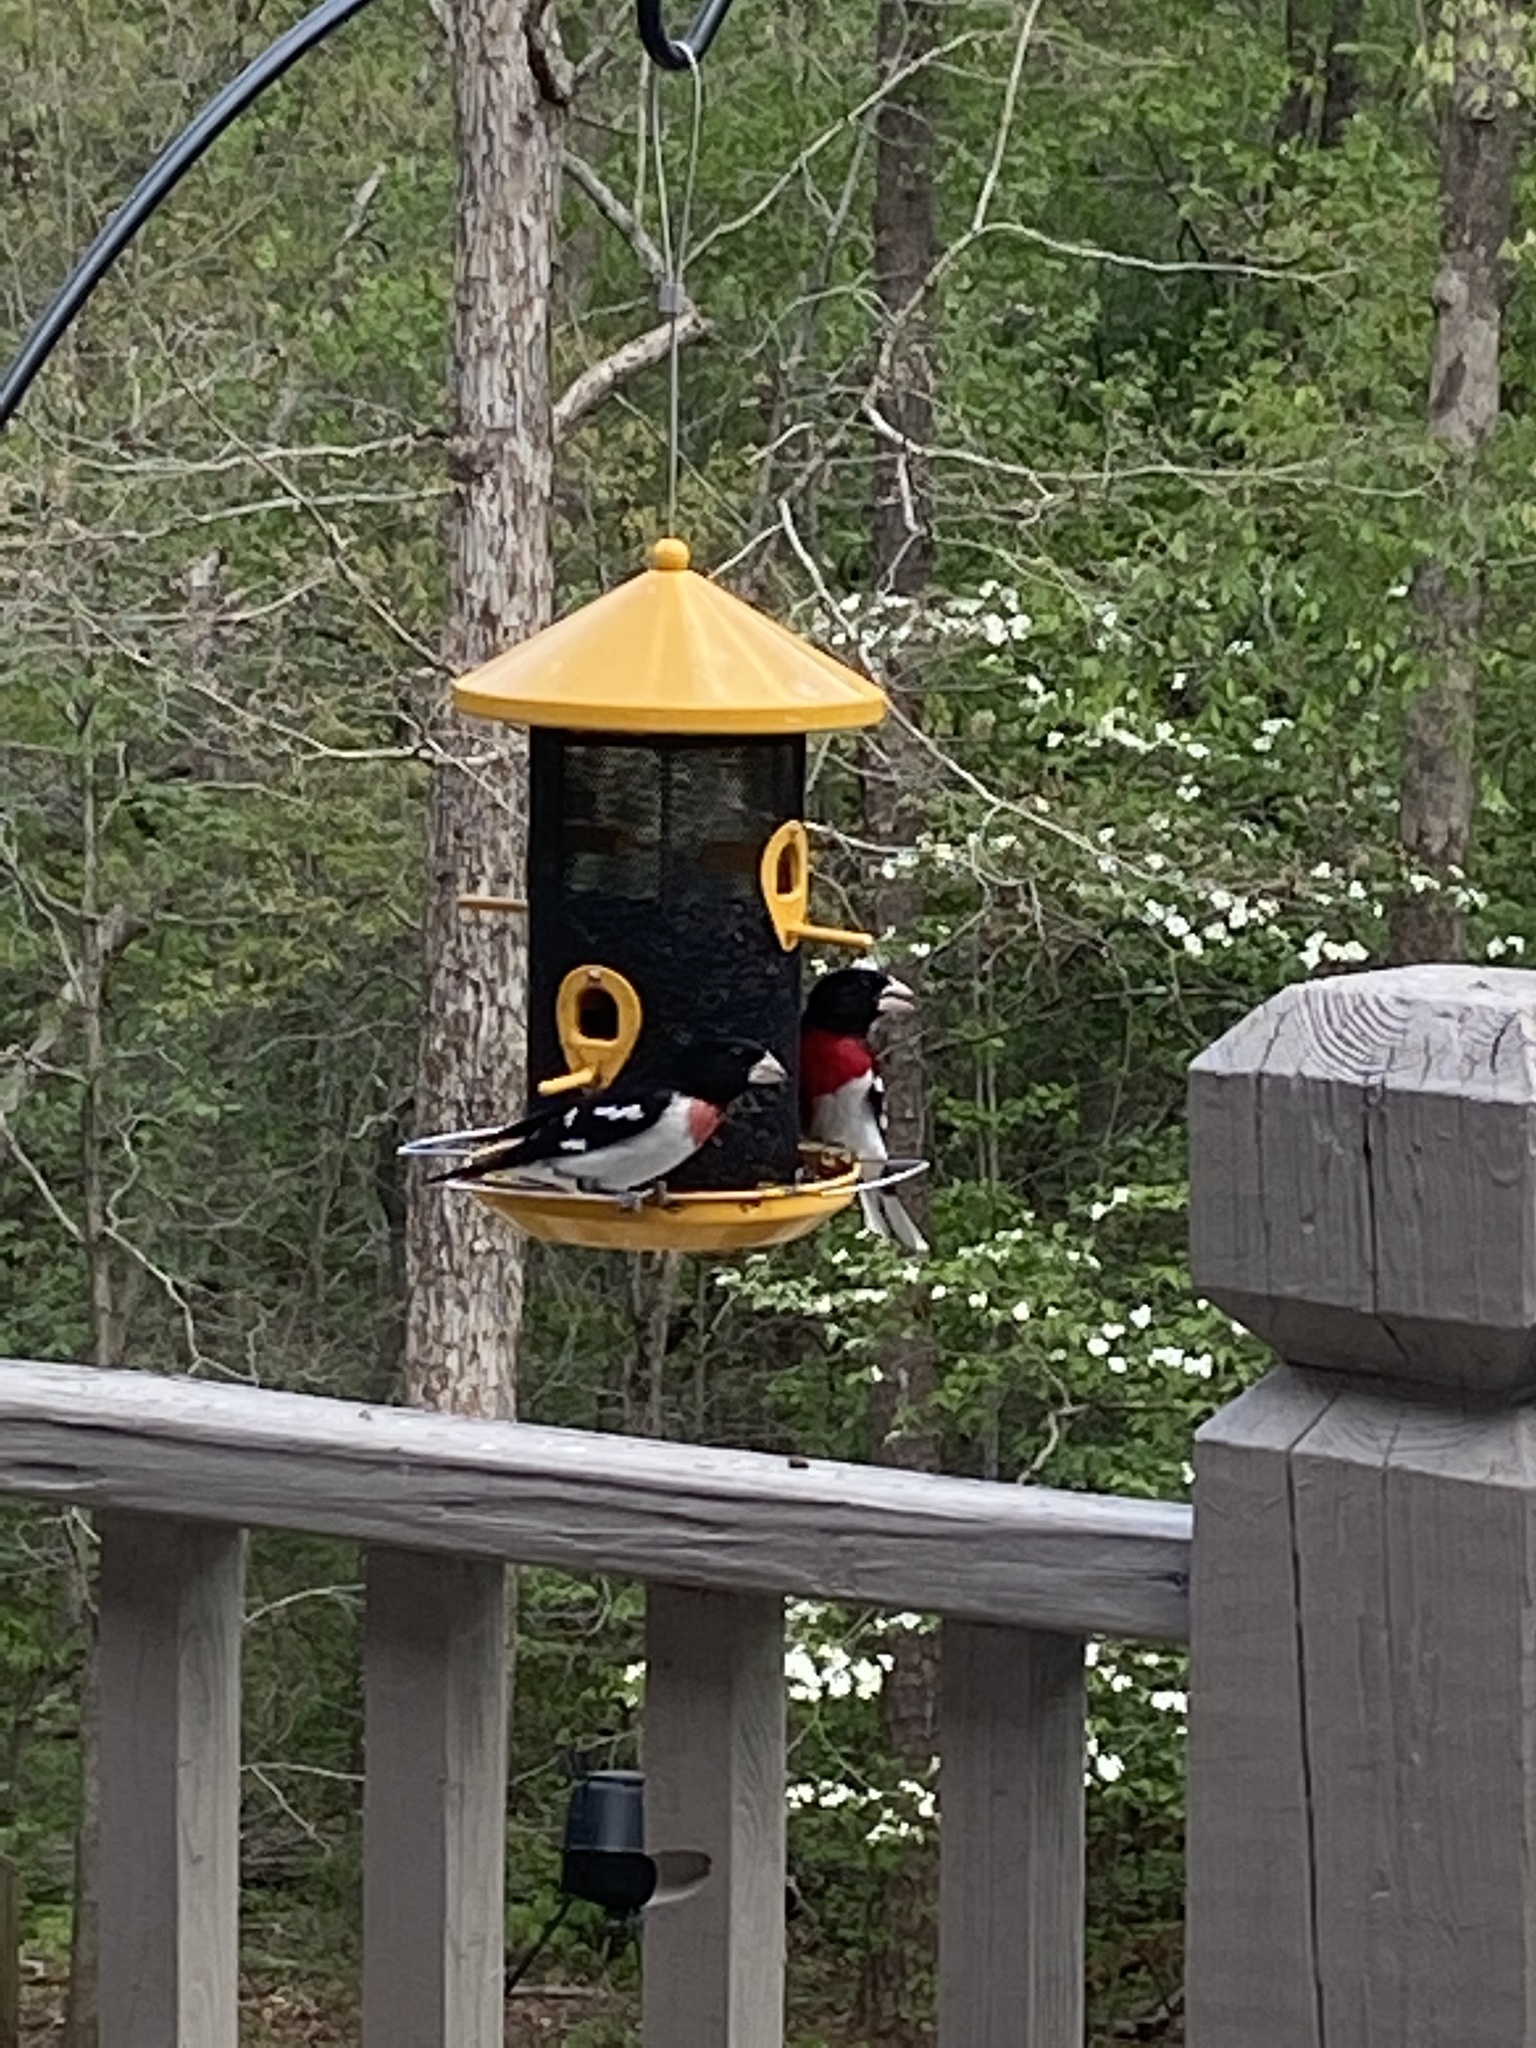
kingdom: Animalia
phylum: Chordata
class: Aves
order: Passeriformes
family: Cardinalidae
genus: Pheucticus
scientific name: Pheucticus ludovicianus
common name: Rose-breasted grosbeak
